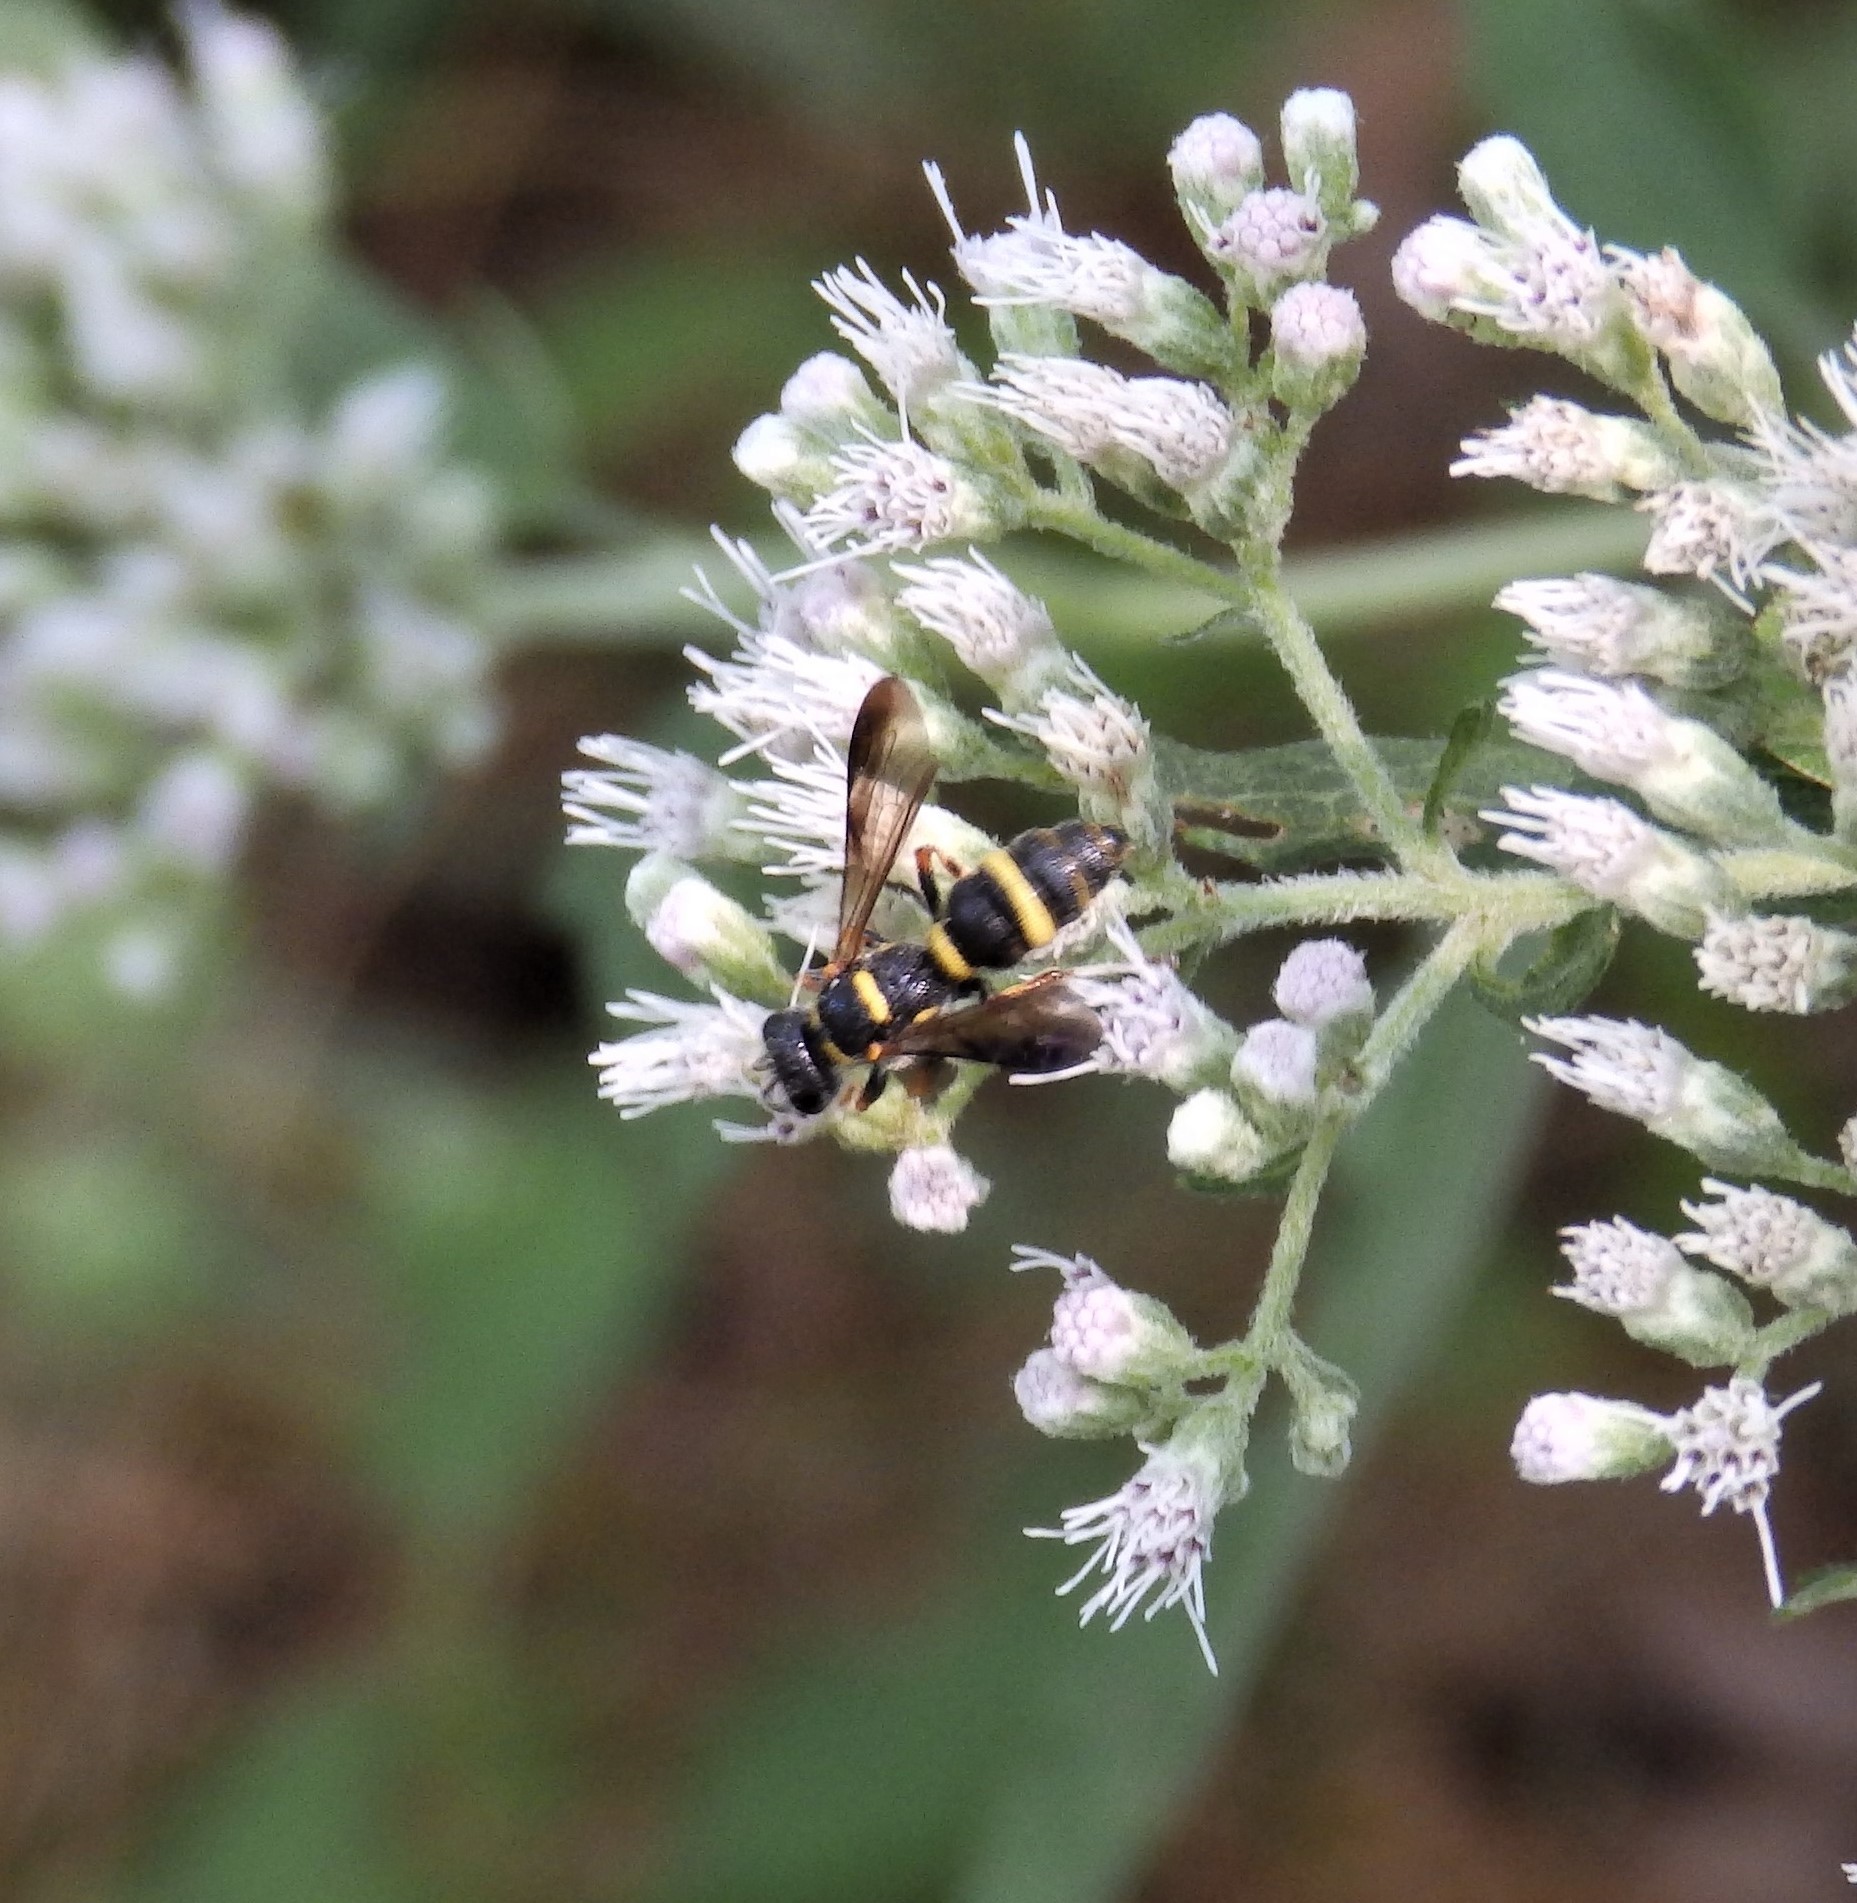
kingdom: Animalia
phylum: Arthropoda
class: Insecta
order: Hymenoptera
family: Crabronidae
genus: Cerceris
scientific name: Cerceris insolita
